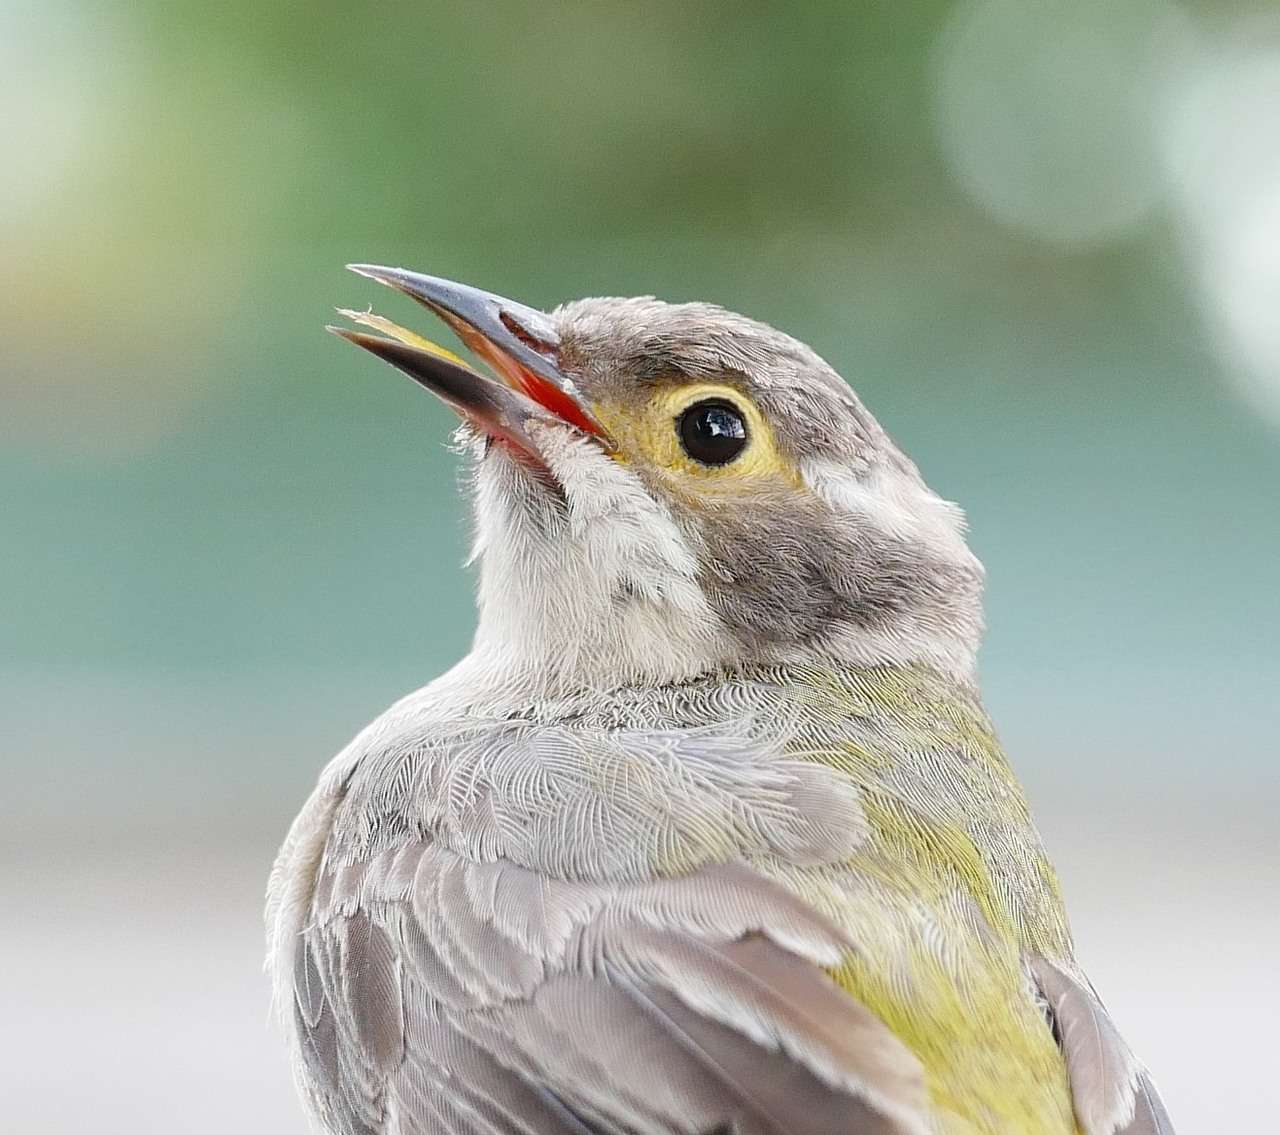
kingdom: Animalia
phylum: Chordata
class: Aves
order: Passeriformes
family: Meliphagidae
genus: Melithreptus
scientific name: Melithreptus brevirostris
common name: Brown-headed honeyeater
